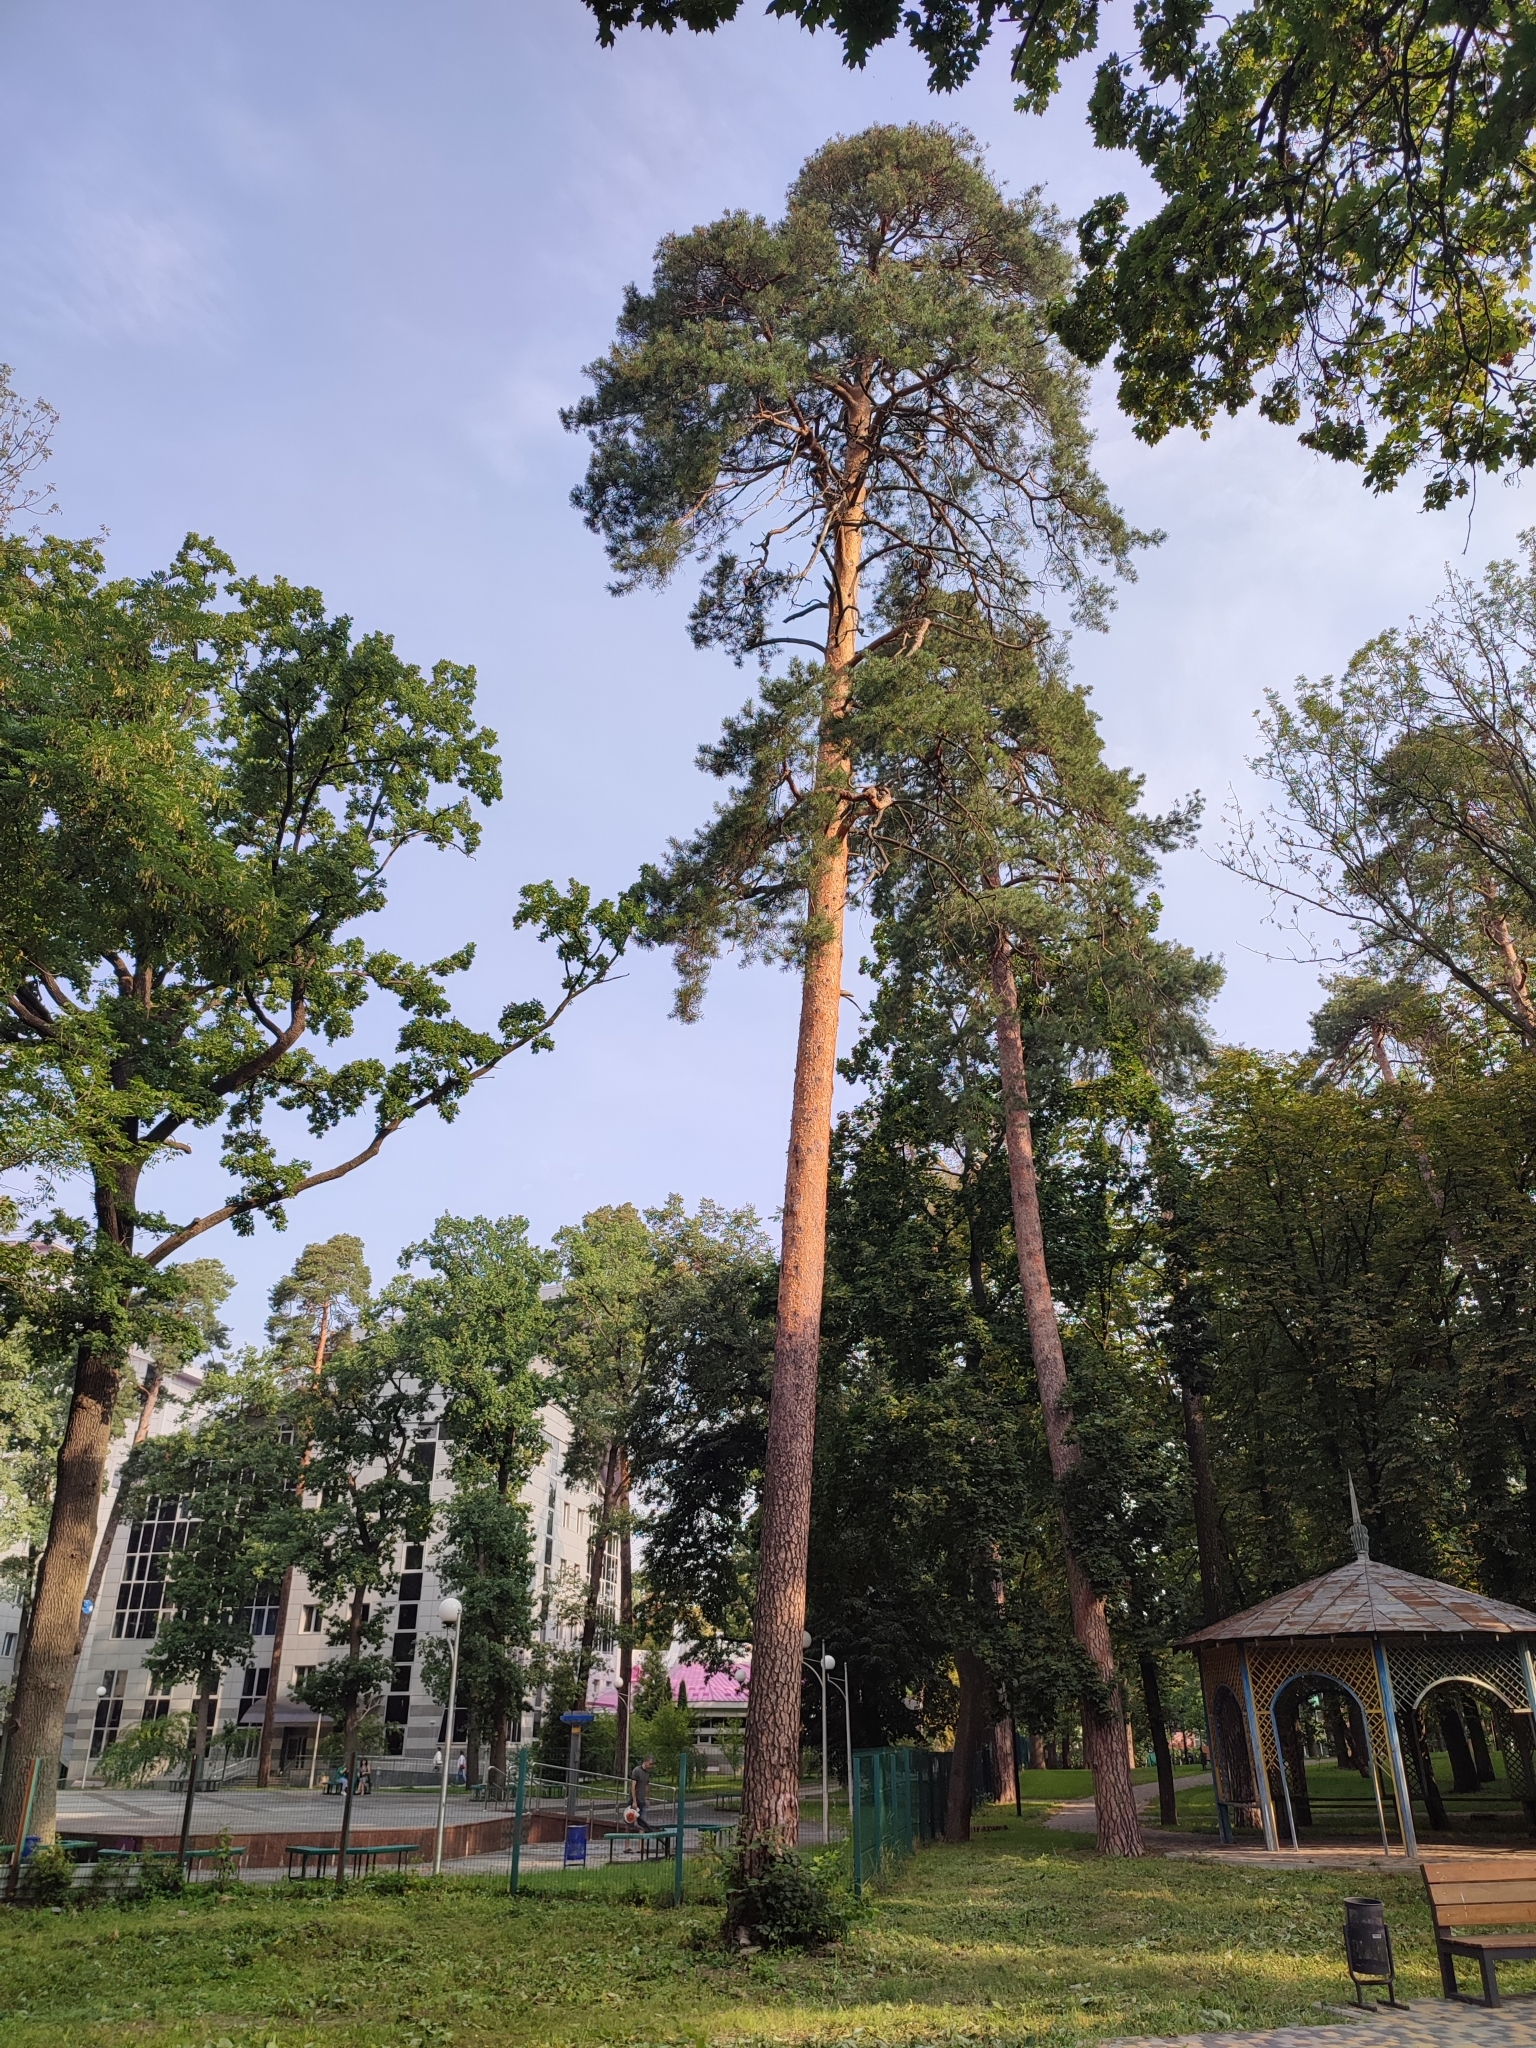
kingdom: Plantae
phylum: Tracheophyta
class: Pinopsida
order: Pinales
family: Pinaceae
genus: Pinus
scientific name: Pinus sylvestris
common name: Scots pine
